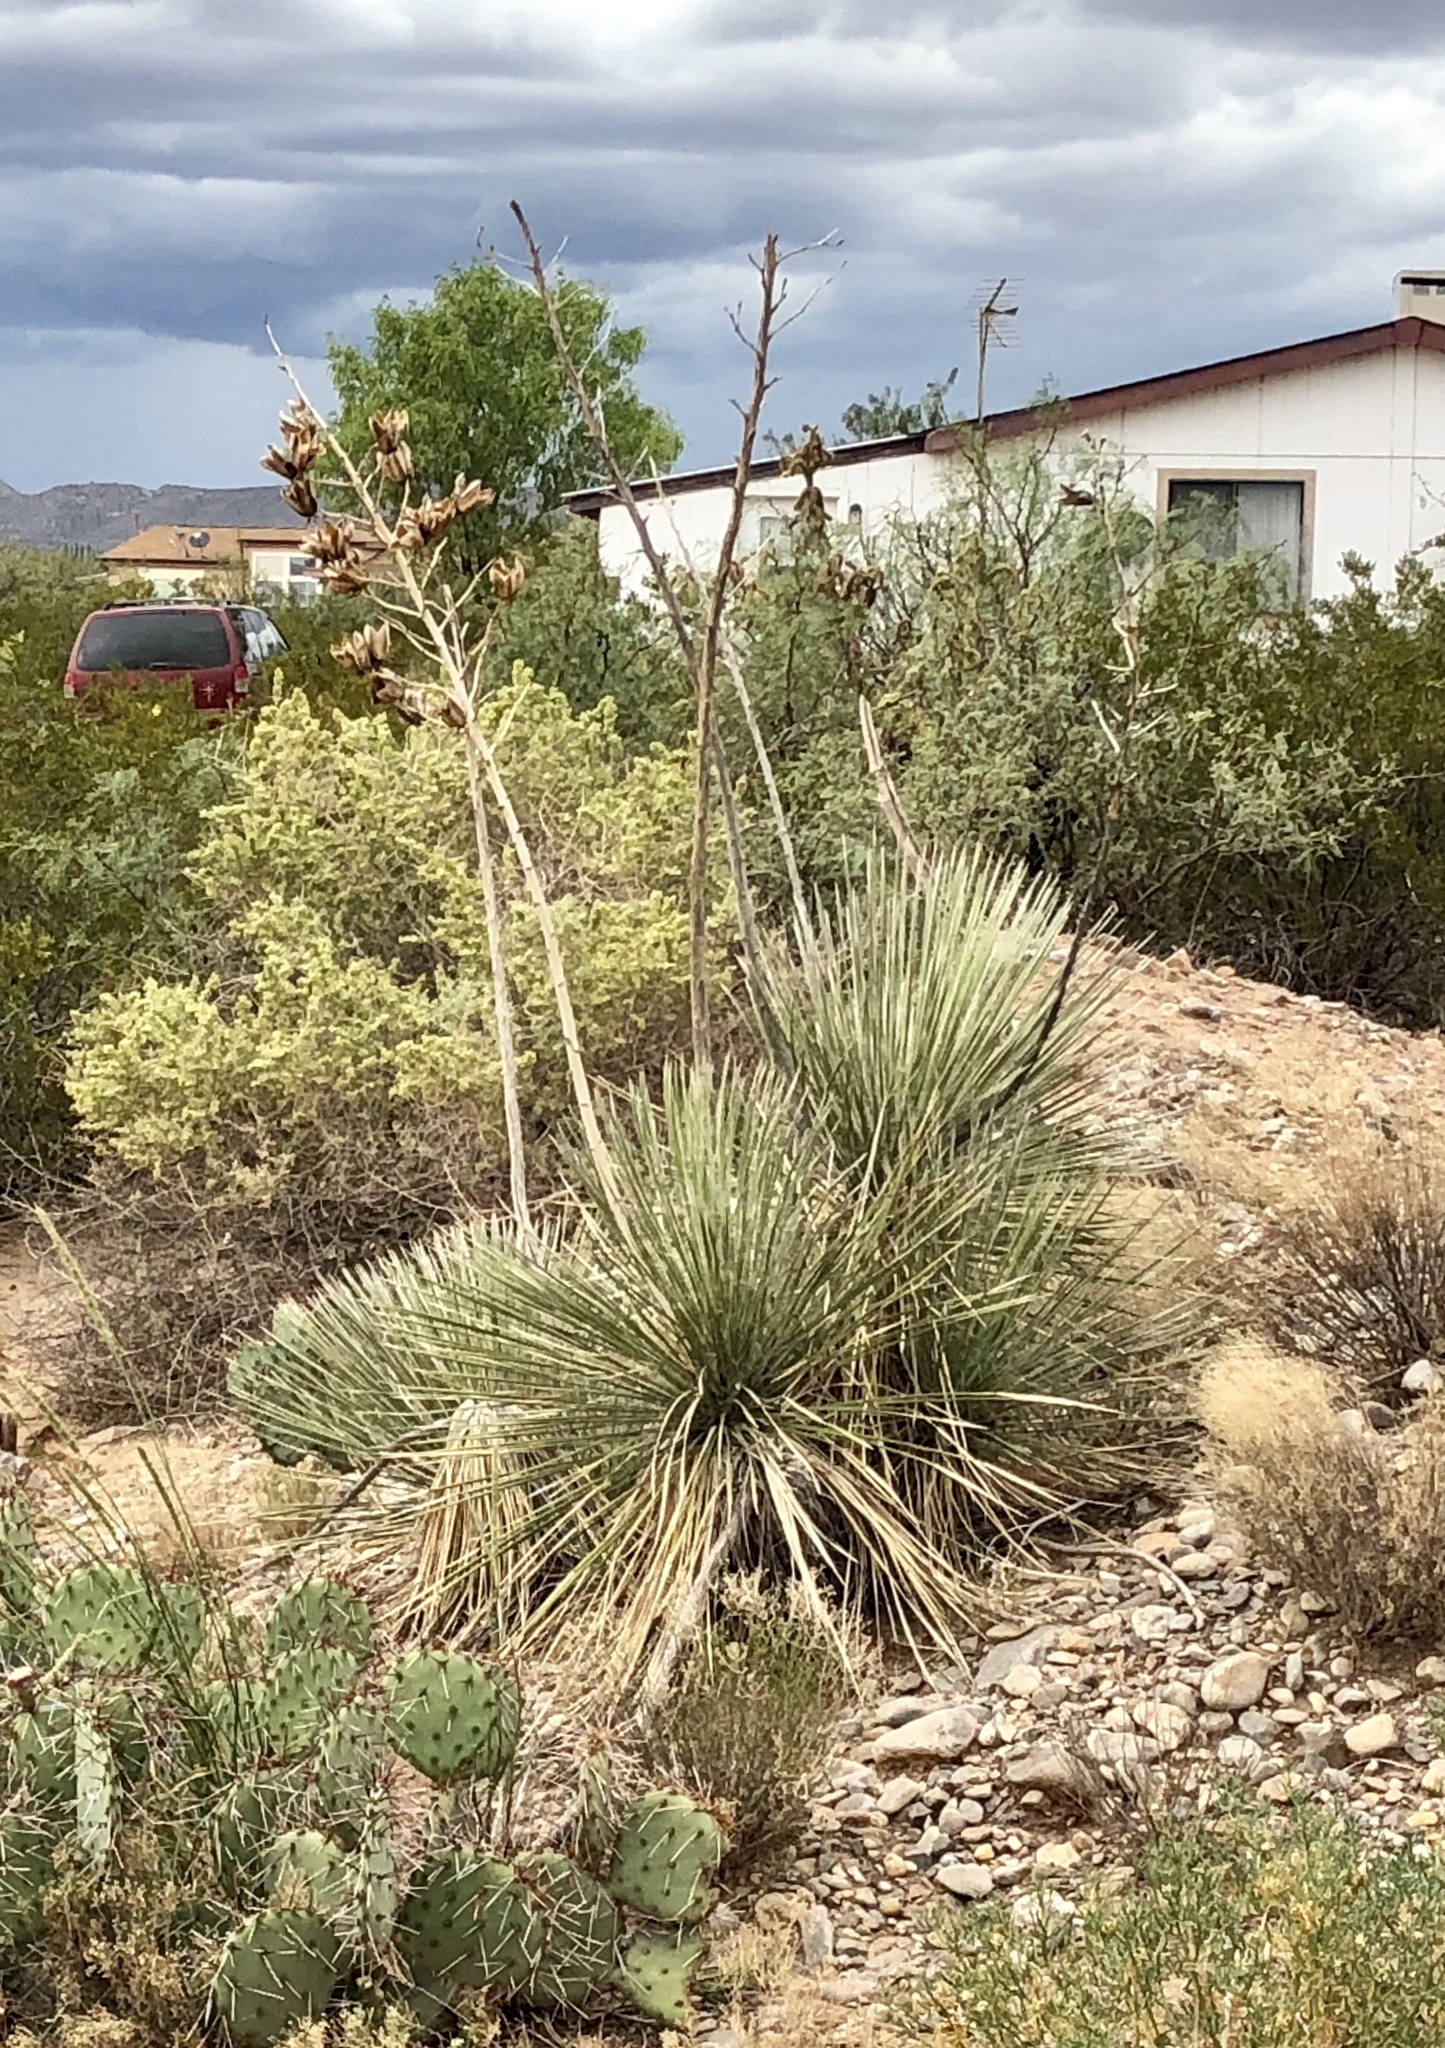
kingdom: Plantae
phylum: Tracheophyta
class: Liliopsida
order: Asparagales
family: Asparagaceae
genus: Yucca
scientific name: Yucca elata
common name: Palmella
